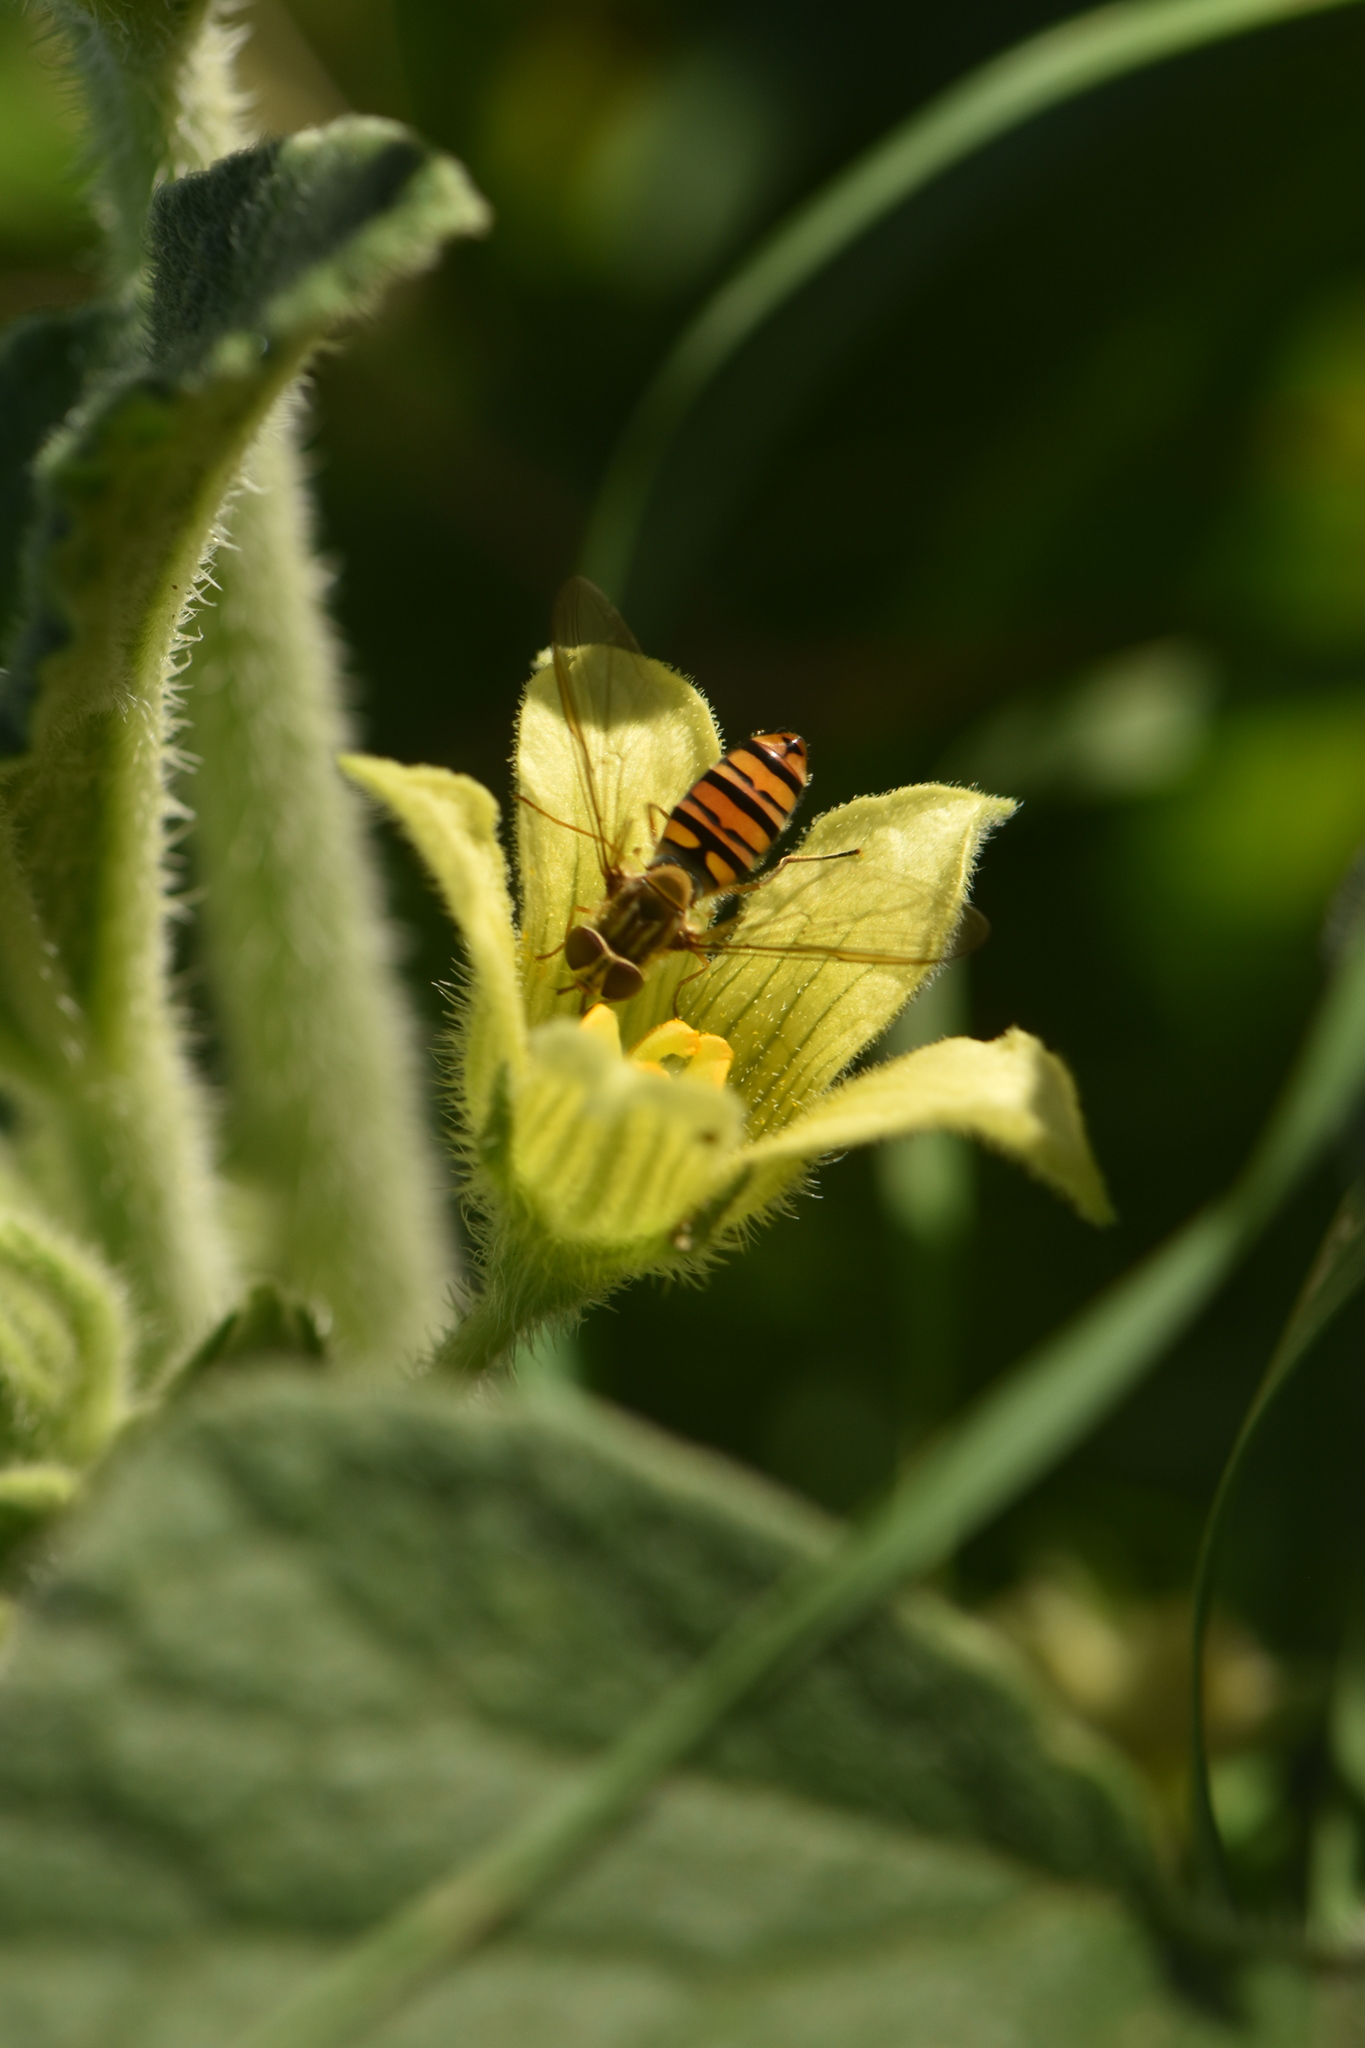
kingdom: Animalia
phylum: Arthropoda
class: Insecta
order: Diptera
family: Syrphidae
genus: Episyrphus
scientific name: Episyrphus balteatus
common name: Marmalade hoverfly
